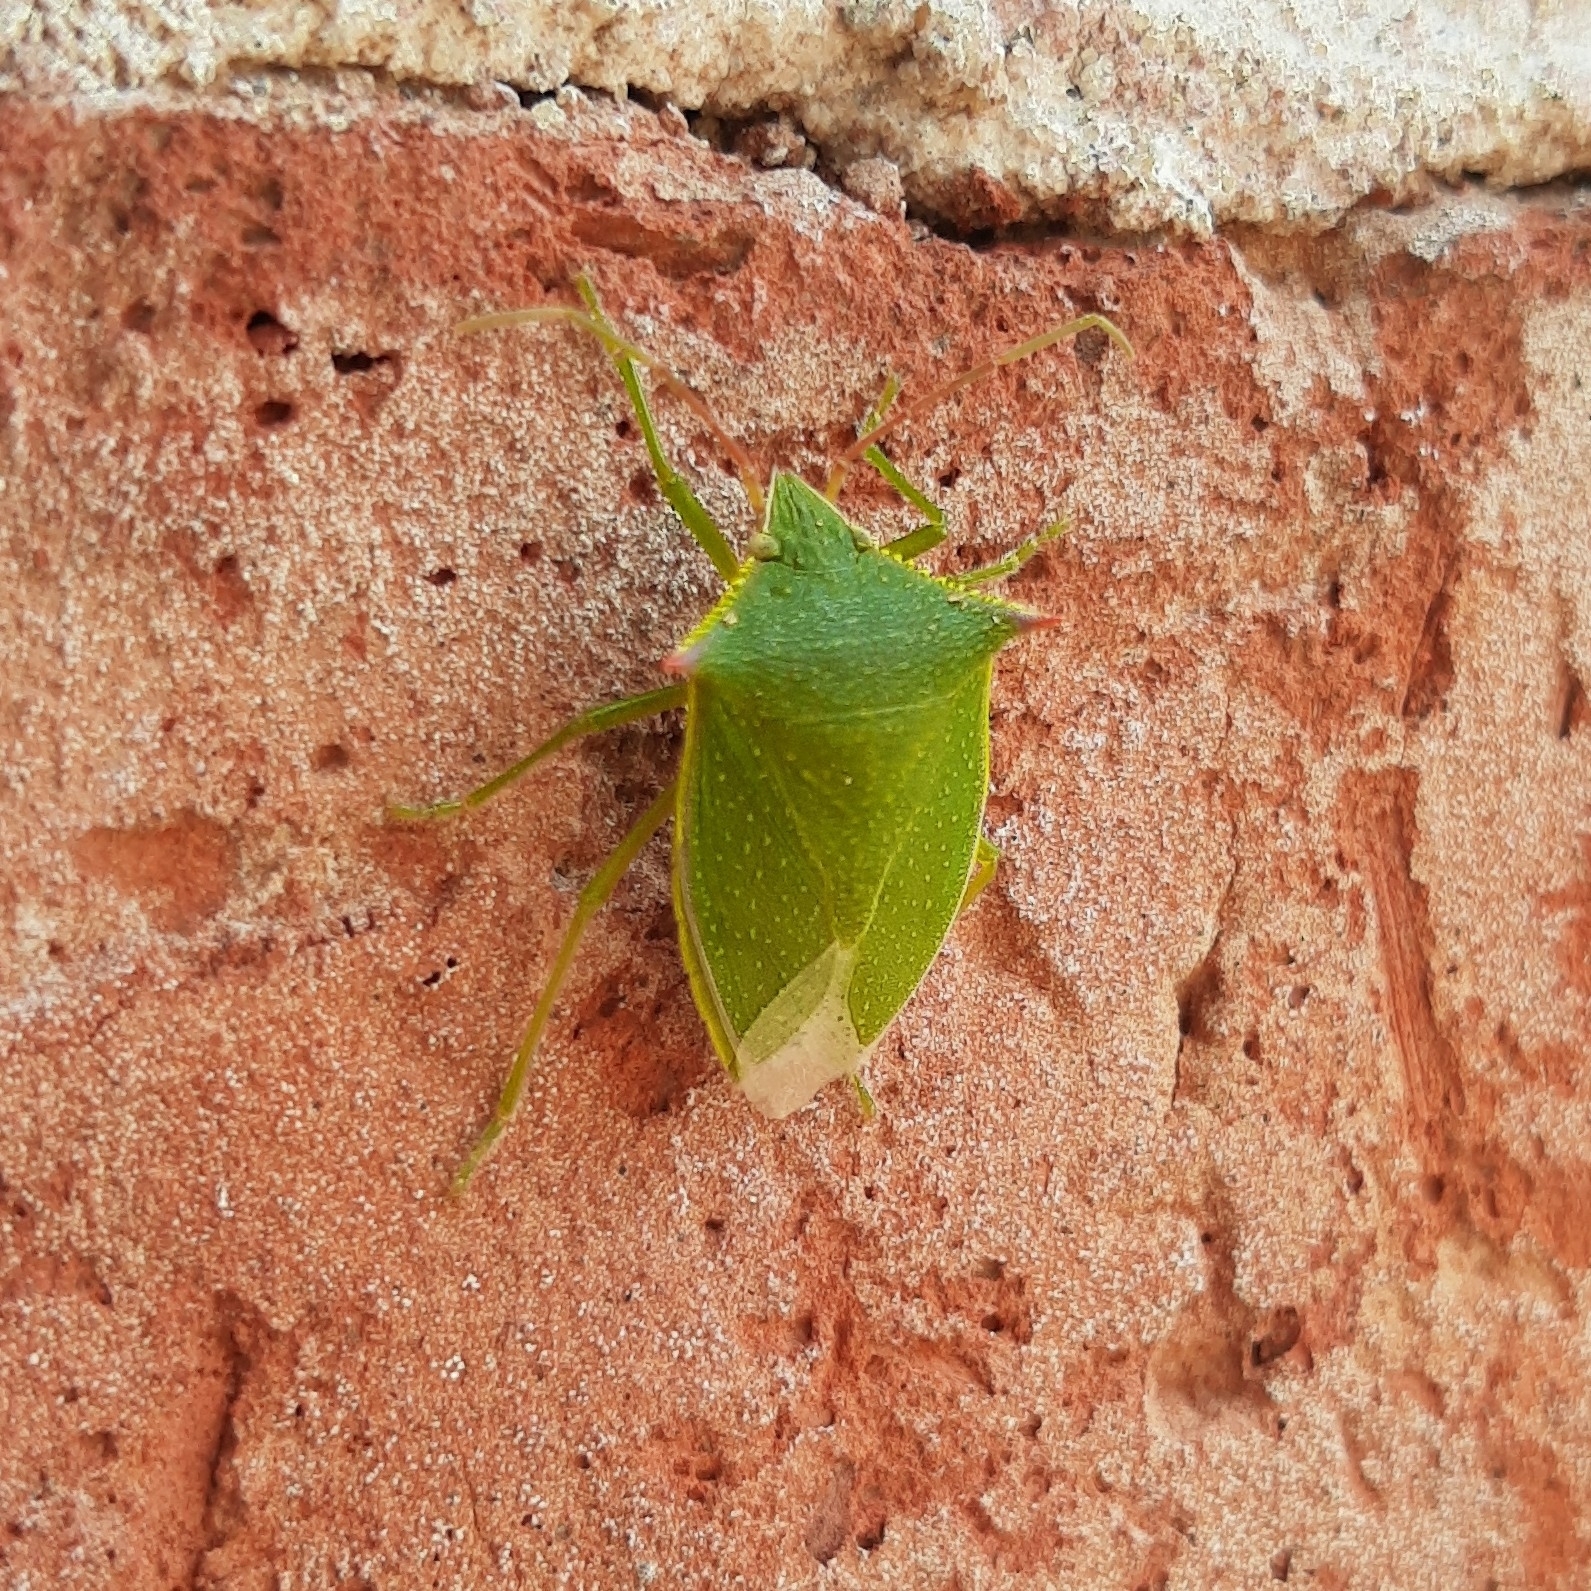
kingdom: Animalia
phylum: Arthropoda
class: Insecta
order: Hemiptera
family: Pentatomidae
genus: Loxa
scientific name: Loxa deducta
